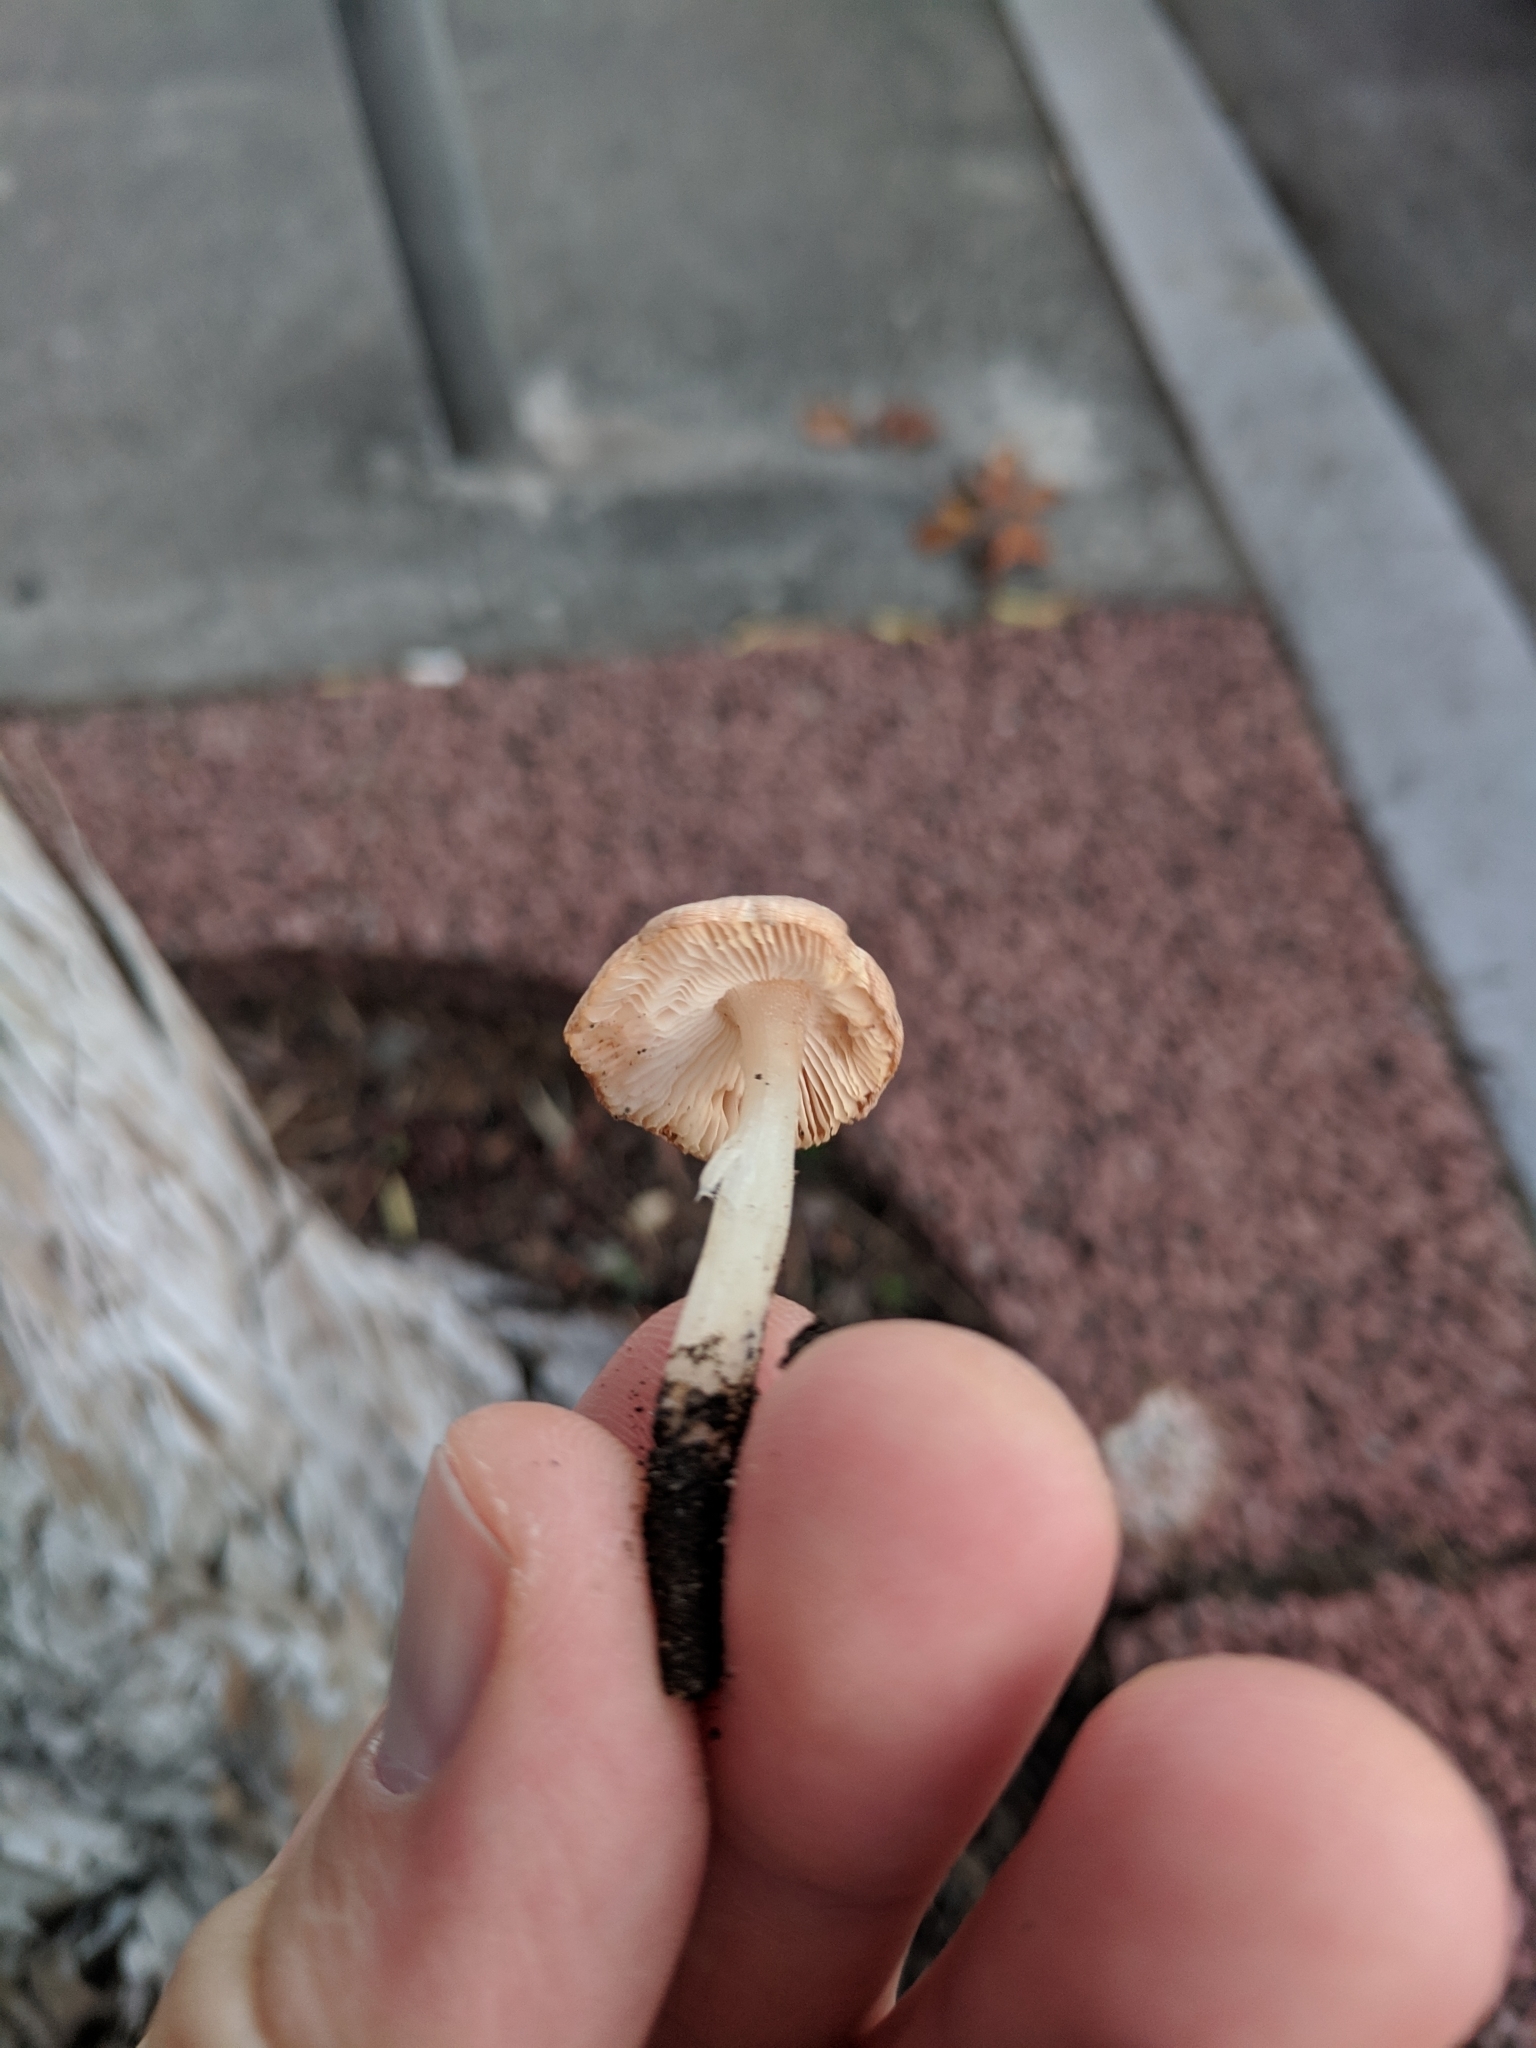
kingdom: Fungi
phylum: Basidiomycota
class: Agaricomycetes
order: Agaricales
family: Tricholomataceae
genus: Leucoinocybe
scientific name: Leucoinocybe lenta
